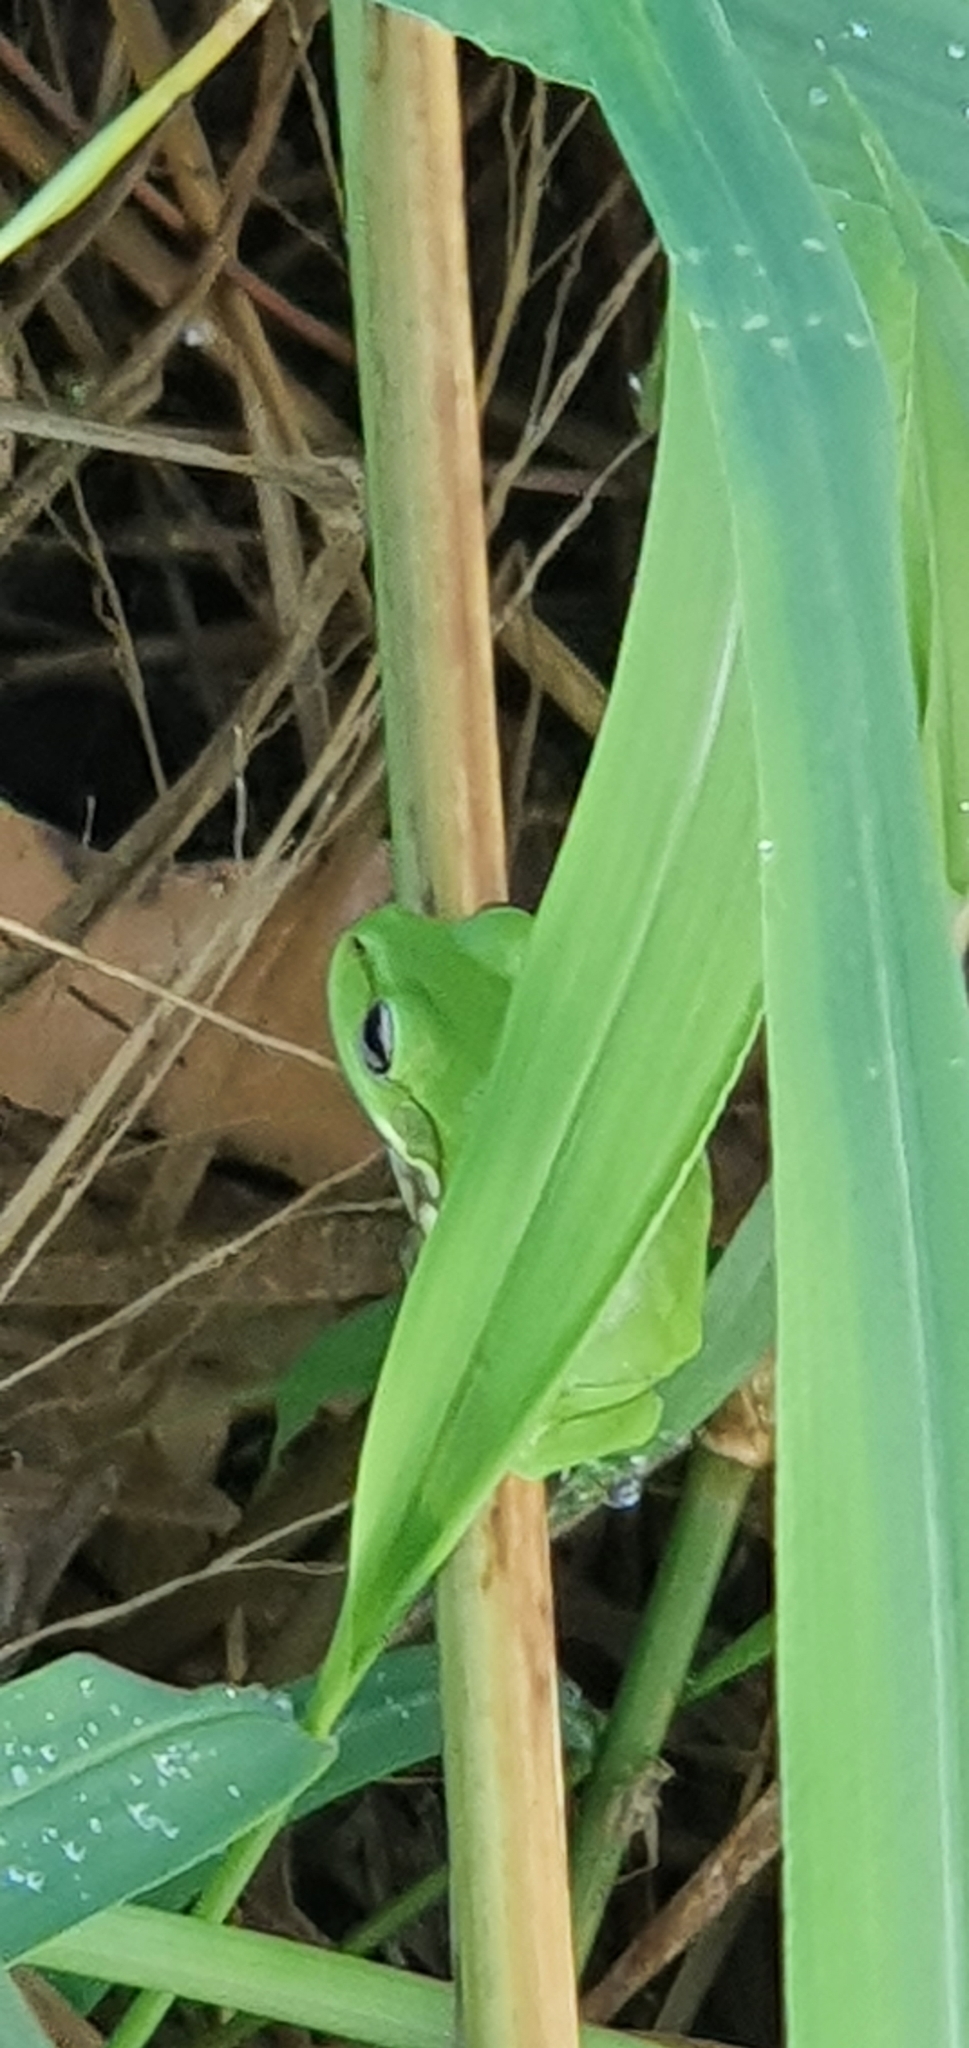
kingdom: Animalia
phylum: Chordata
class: Amphibia
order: Anura
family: Pelodryadidae
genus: Ranoidea
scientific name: Ranoidea caerulea
